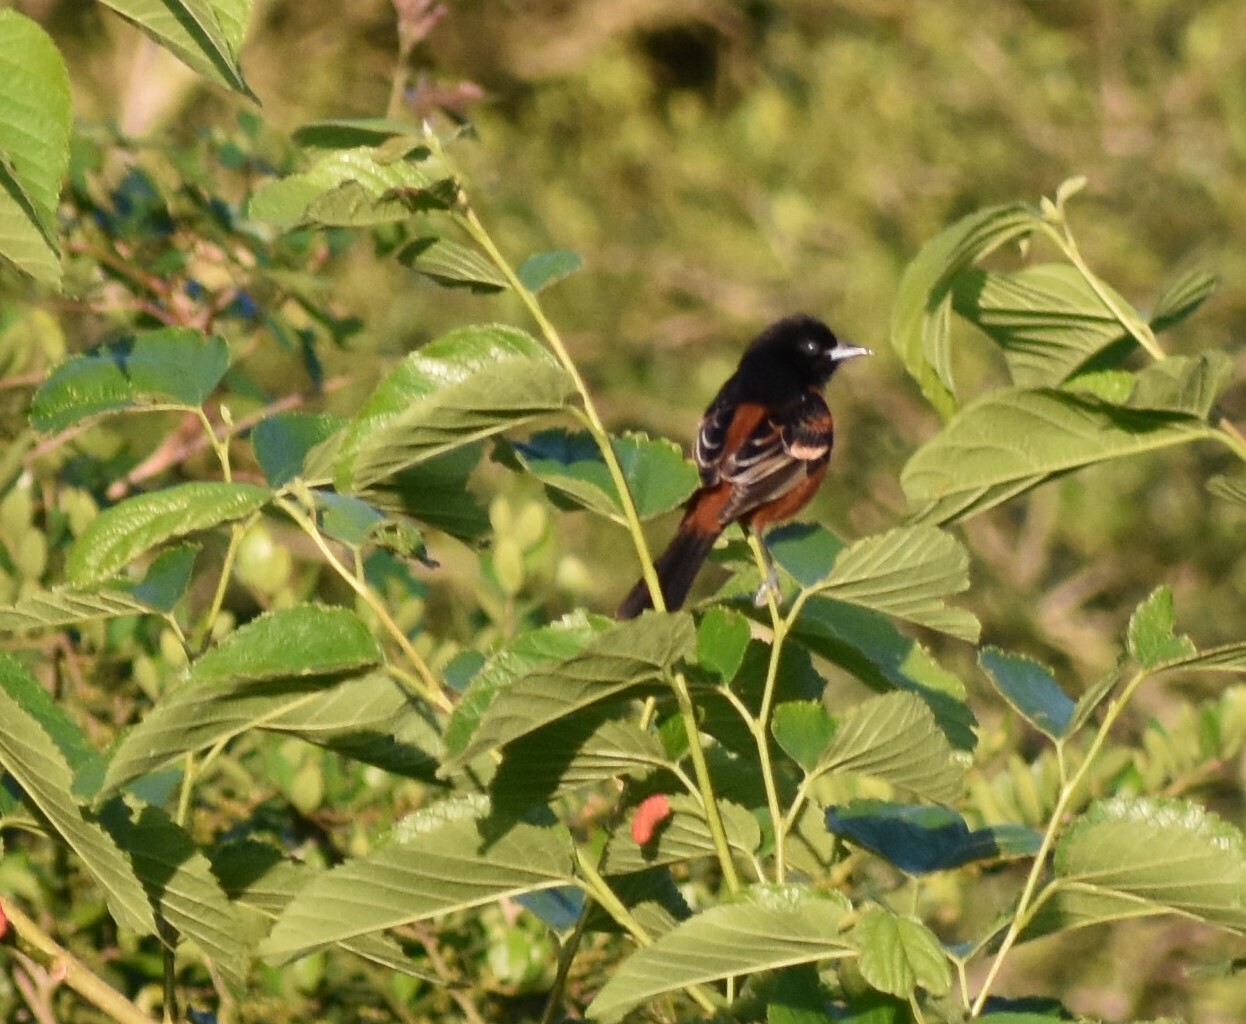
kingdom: Animalia
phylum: Chordata
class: Aves
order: Passeriformes
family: Icteridae
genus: Icterus
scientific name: Icterus spurius
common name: Orchard oriole
